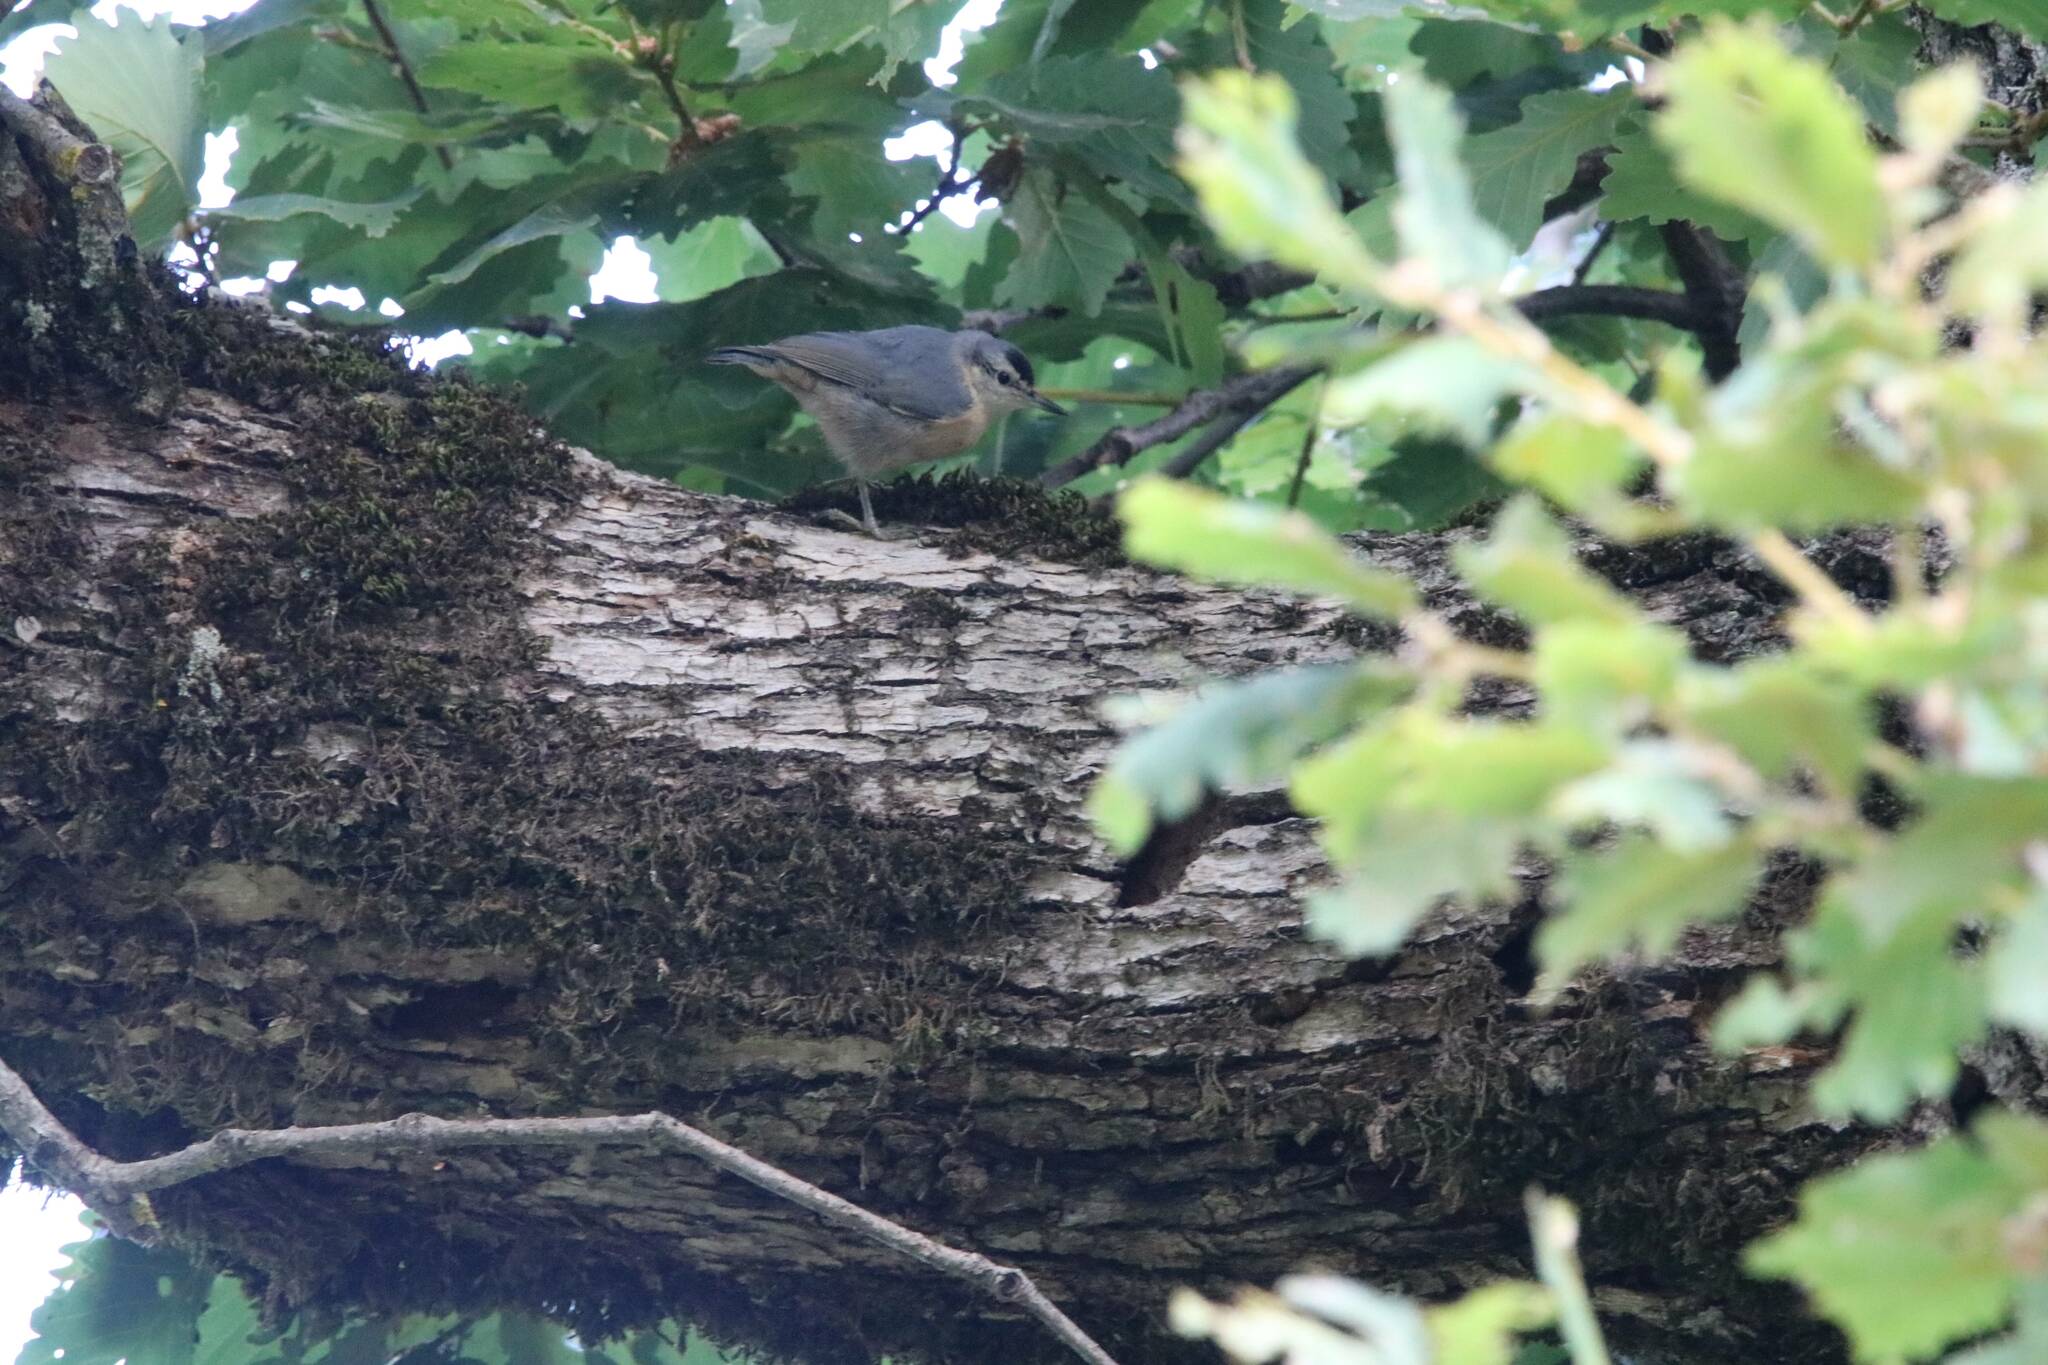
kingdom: Animalia
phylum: Chordata
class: Aves
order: Passeriformes
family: Sittidae
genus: Sitta
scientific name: Sitta ledanti
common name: Algerian nuthatch
